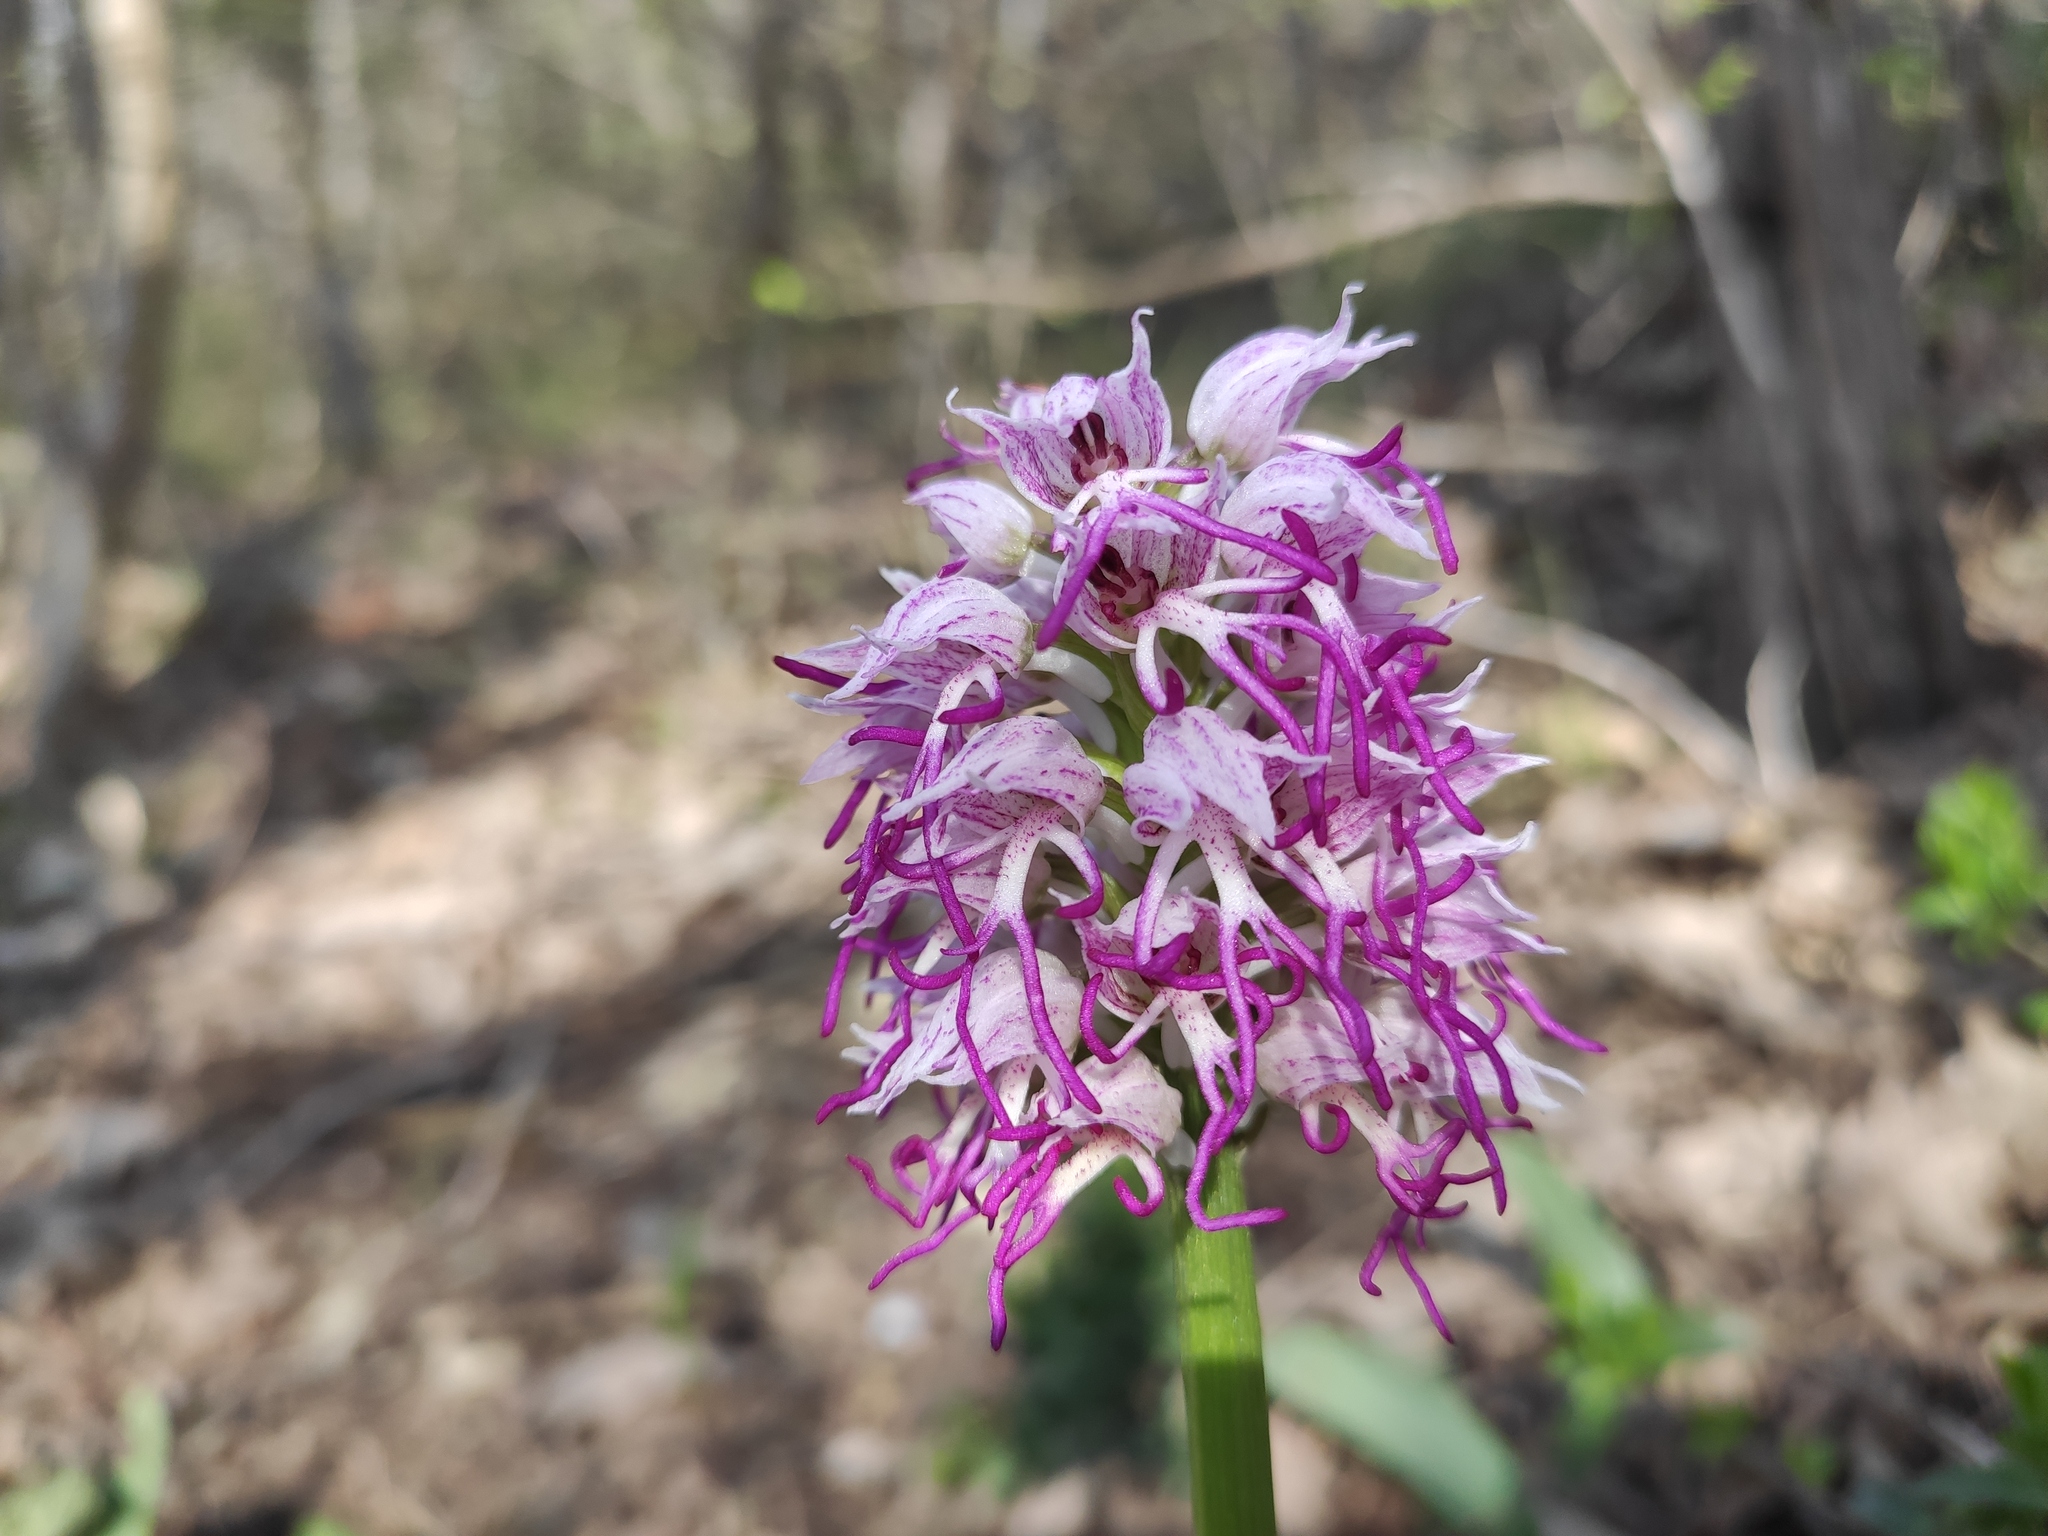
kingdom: Plantae
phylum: Tracheophyta
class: Liliopsida
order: Asparagales
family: Orchidaceae
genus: Orchis
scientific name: Orchis simia
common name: Monkey orchid
